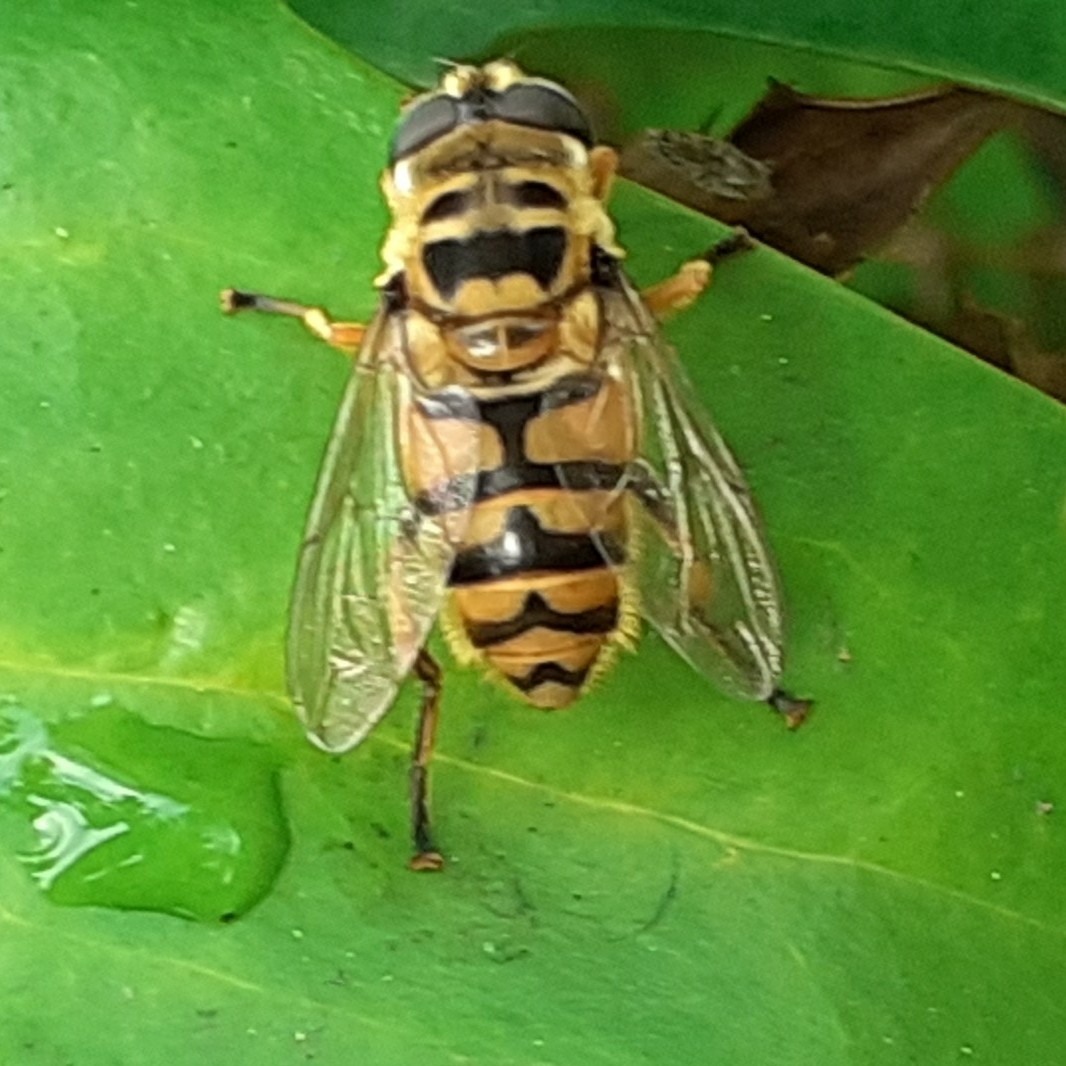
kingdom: Animalia
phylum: Arthropoda
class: Insecta
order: Diptera
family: Syrphidae
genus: Myathropa
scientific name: Myathropa florea
